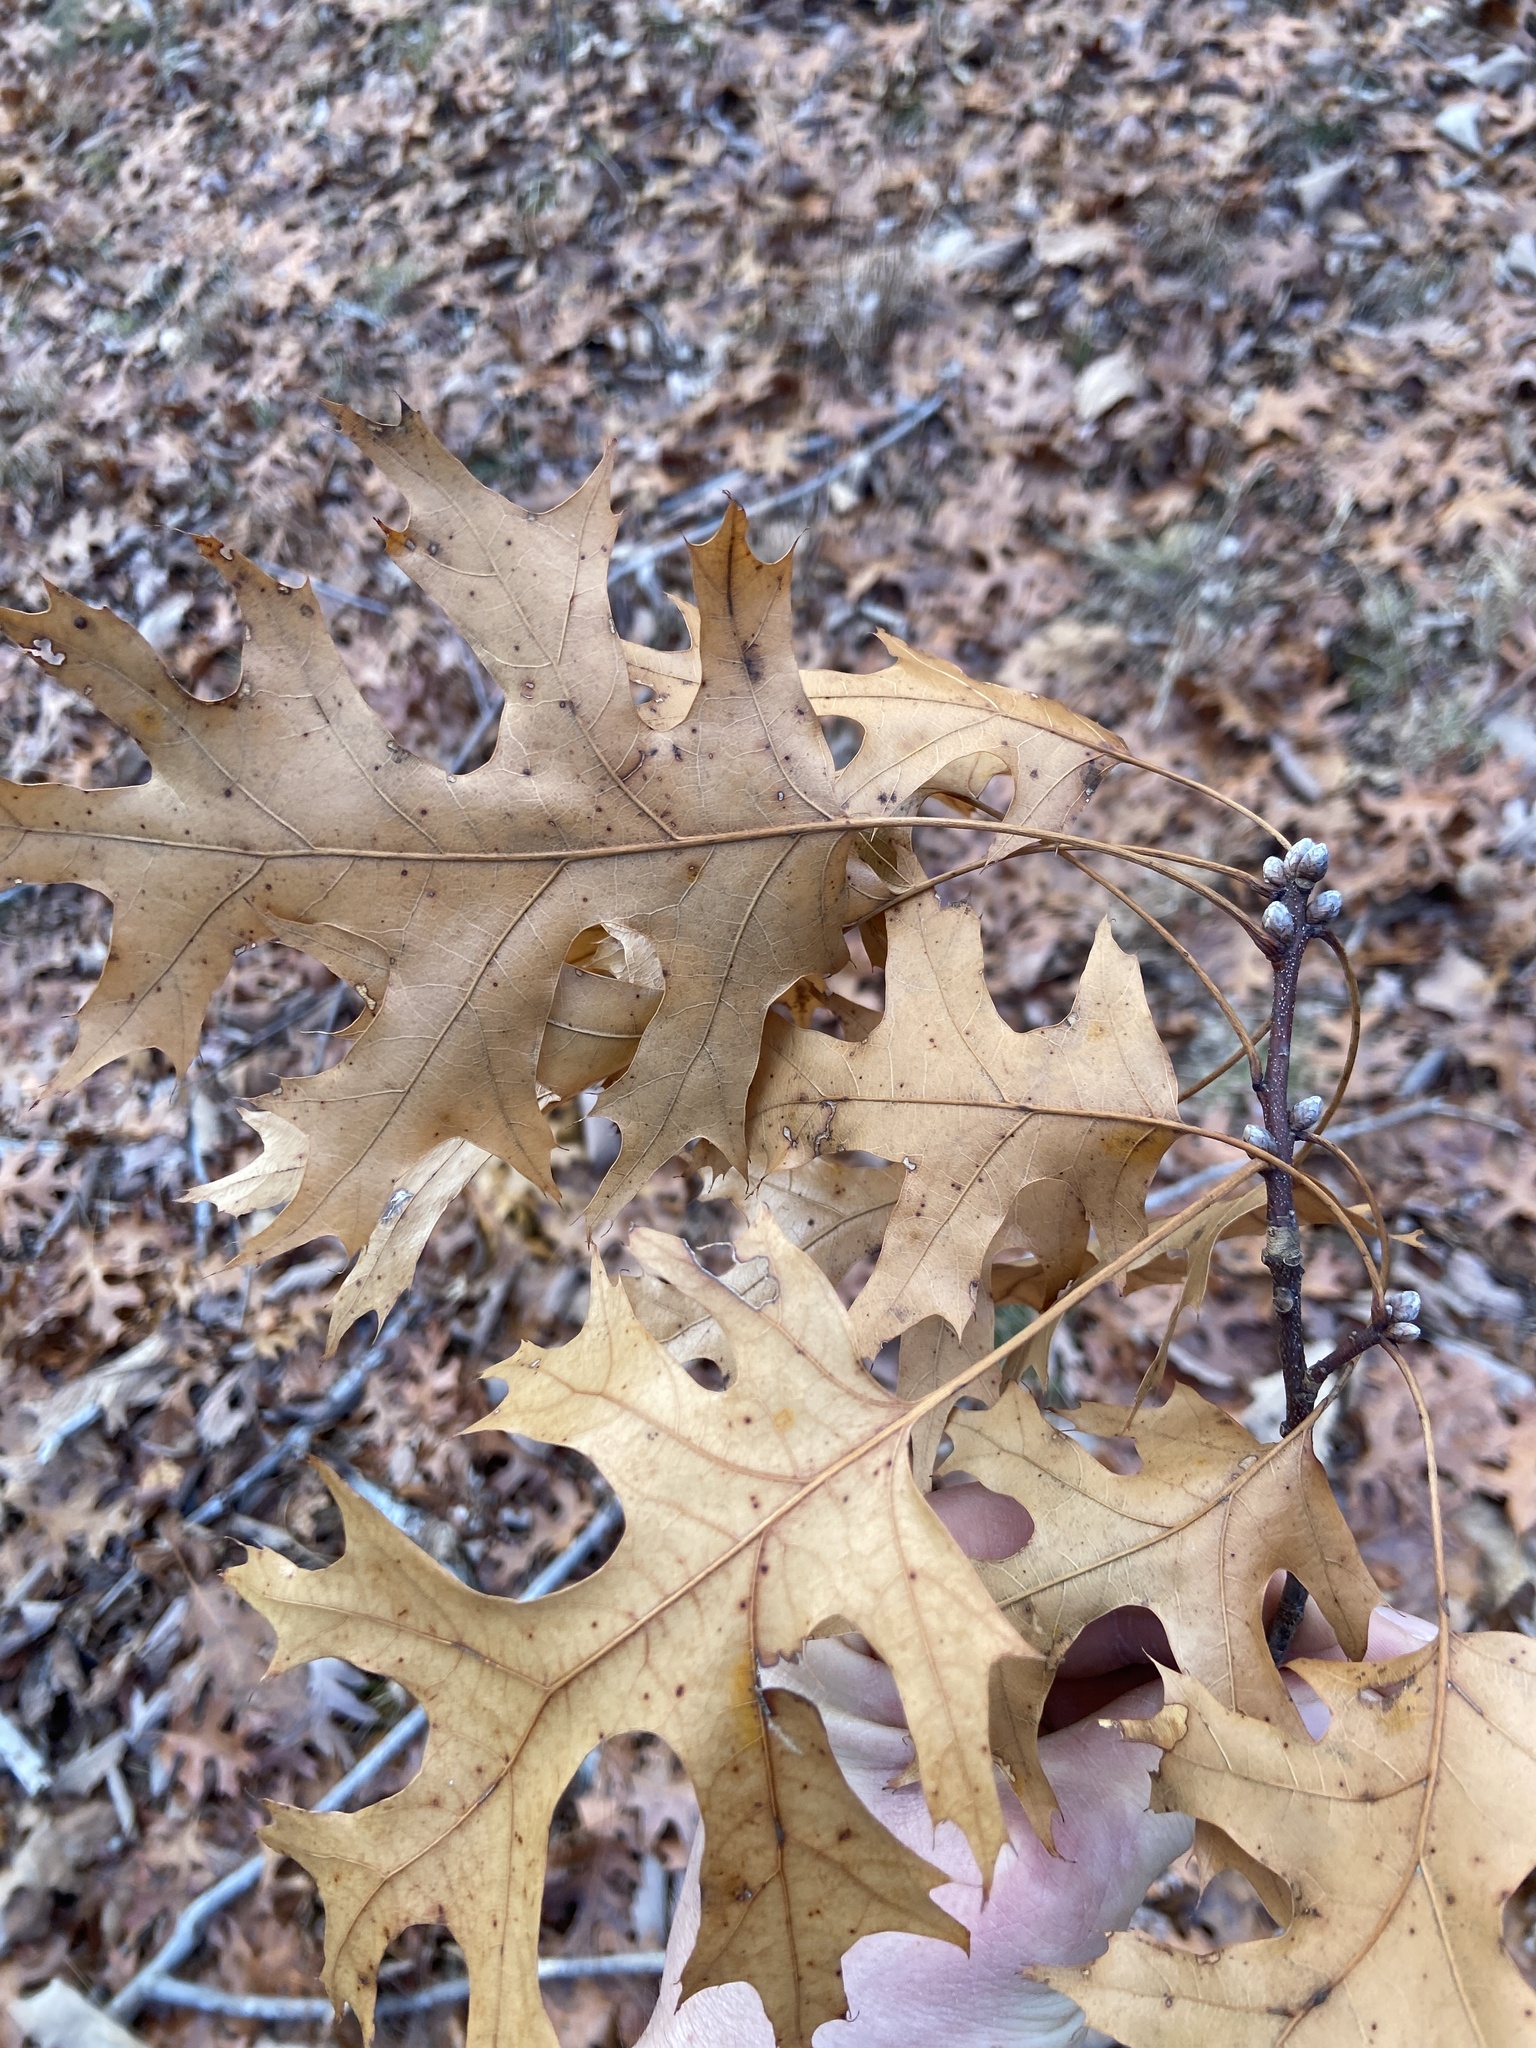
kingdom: Plantae
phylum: Tracheophyta
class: Magnoliopsida
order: Fagales
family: Fagaceae
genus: Quercus
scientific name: Quercus coccinea
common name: Scarlet oak
